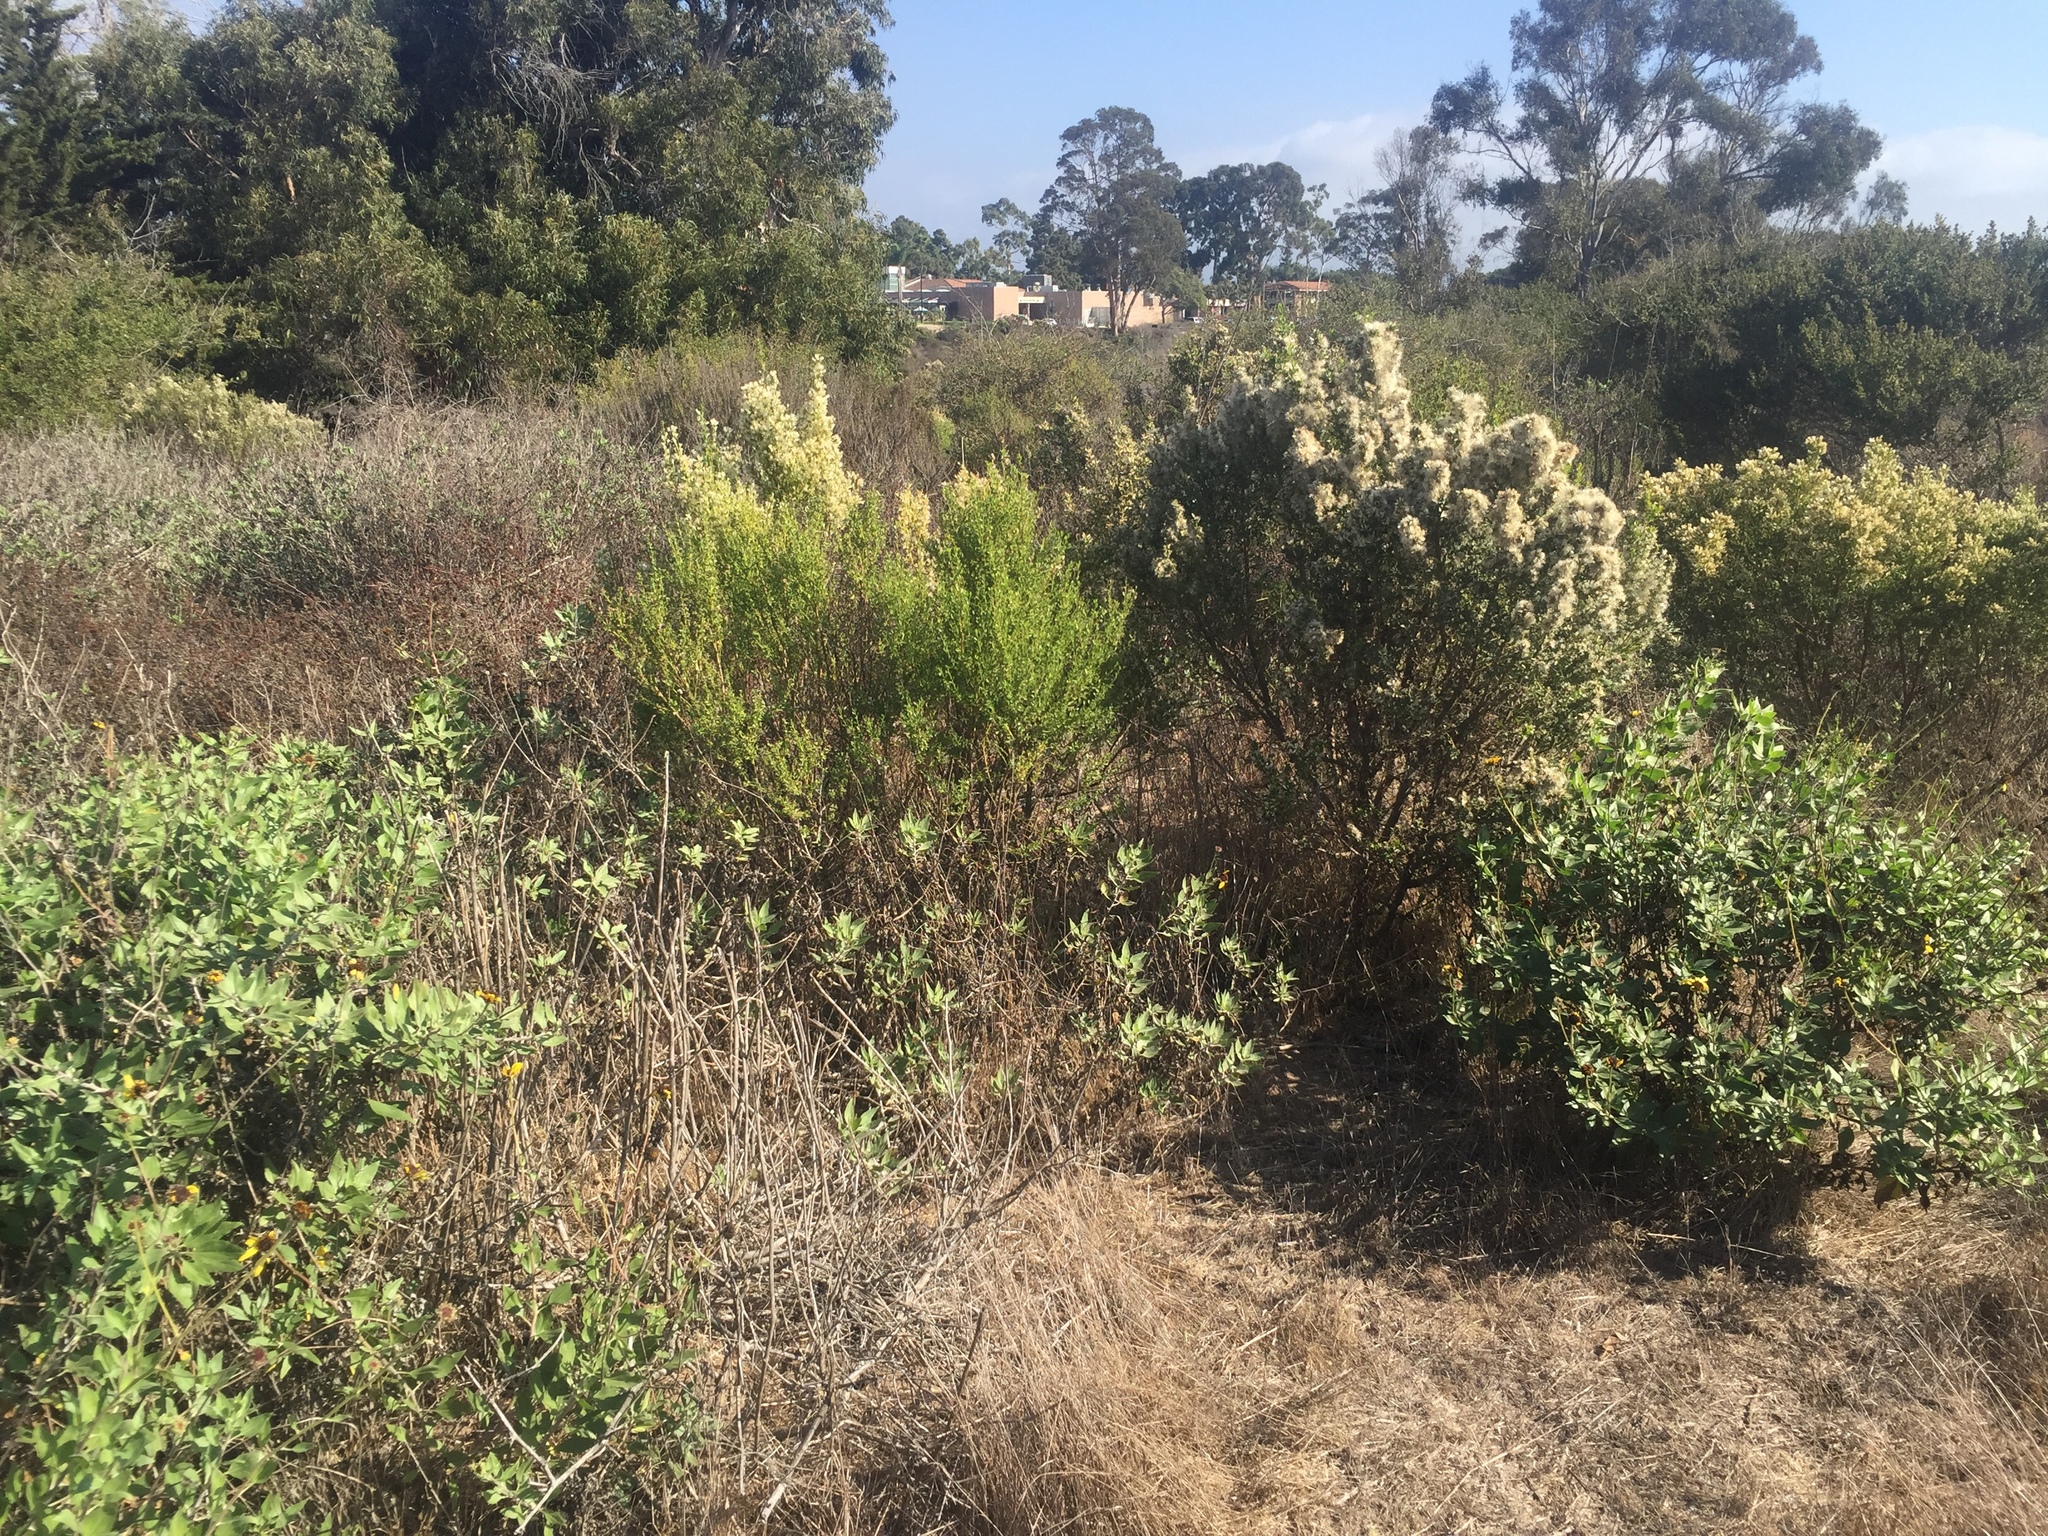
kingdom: Plantae
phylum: Tracheophyta
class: Magnoliopsida
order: Asterales
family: Asteraceae
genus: Baccharis
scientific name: Baccharis pilularis
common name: Coyotebrush
